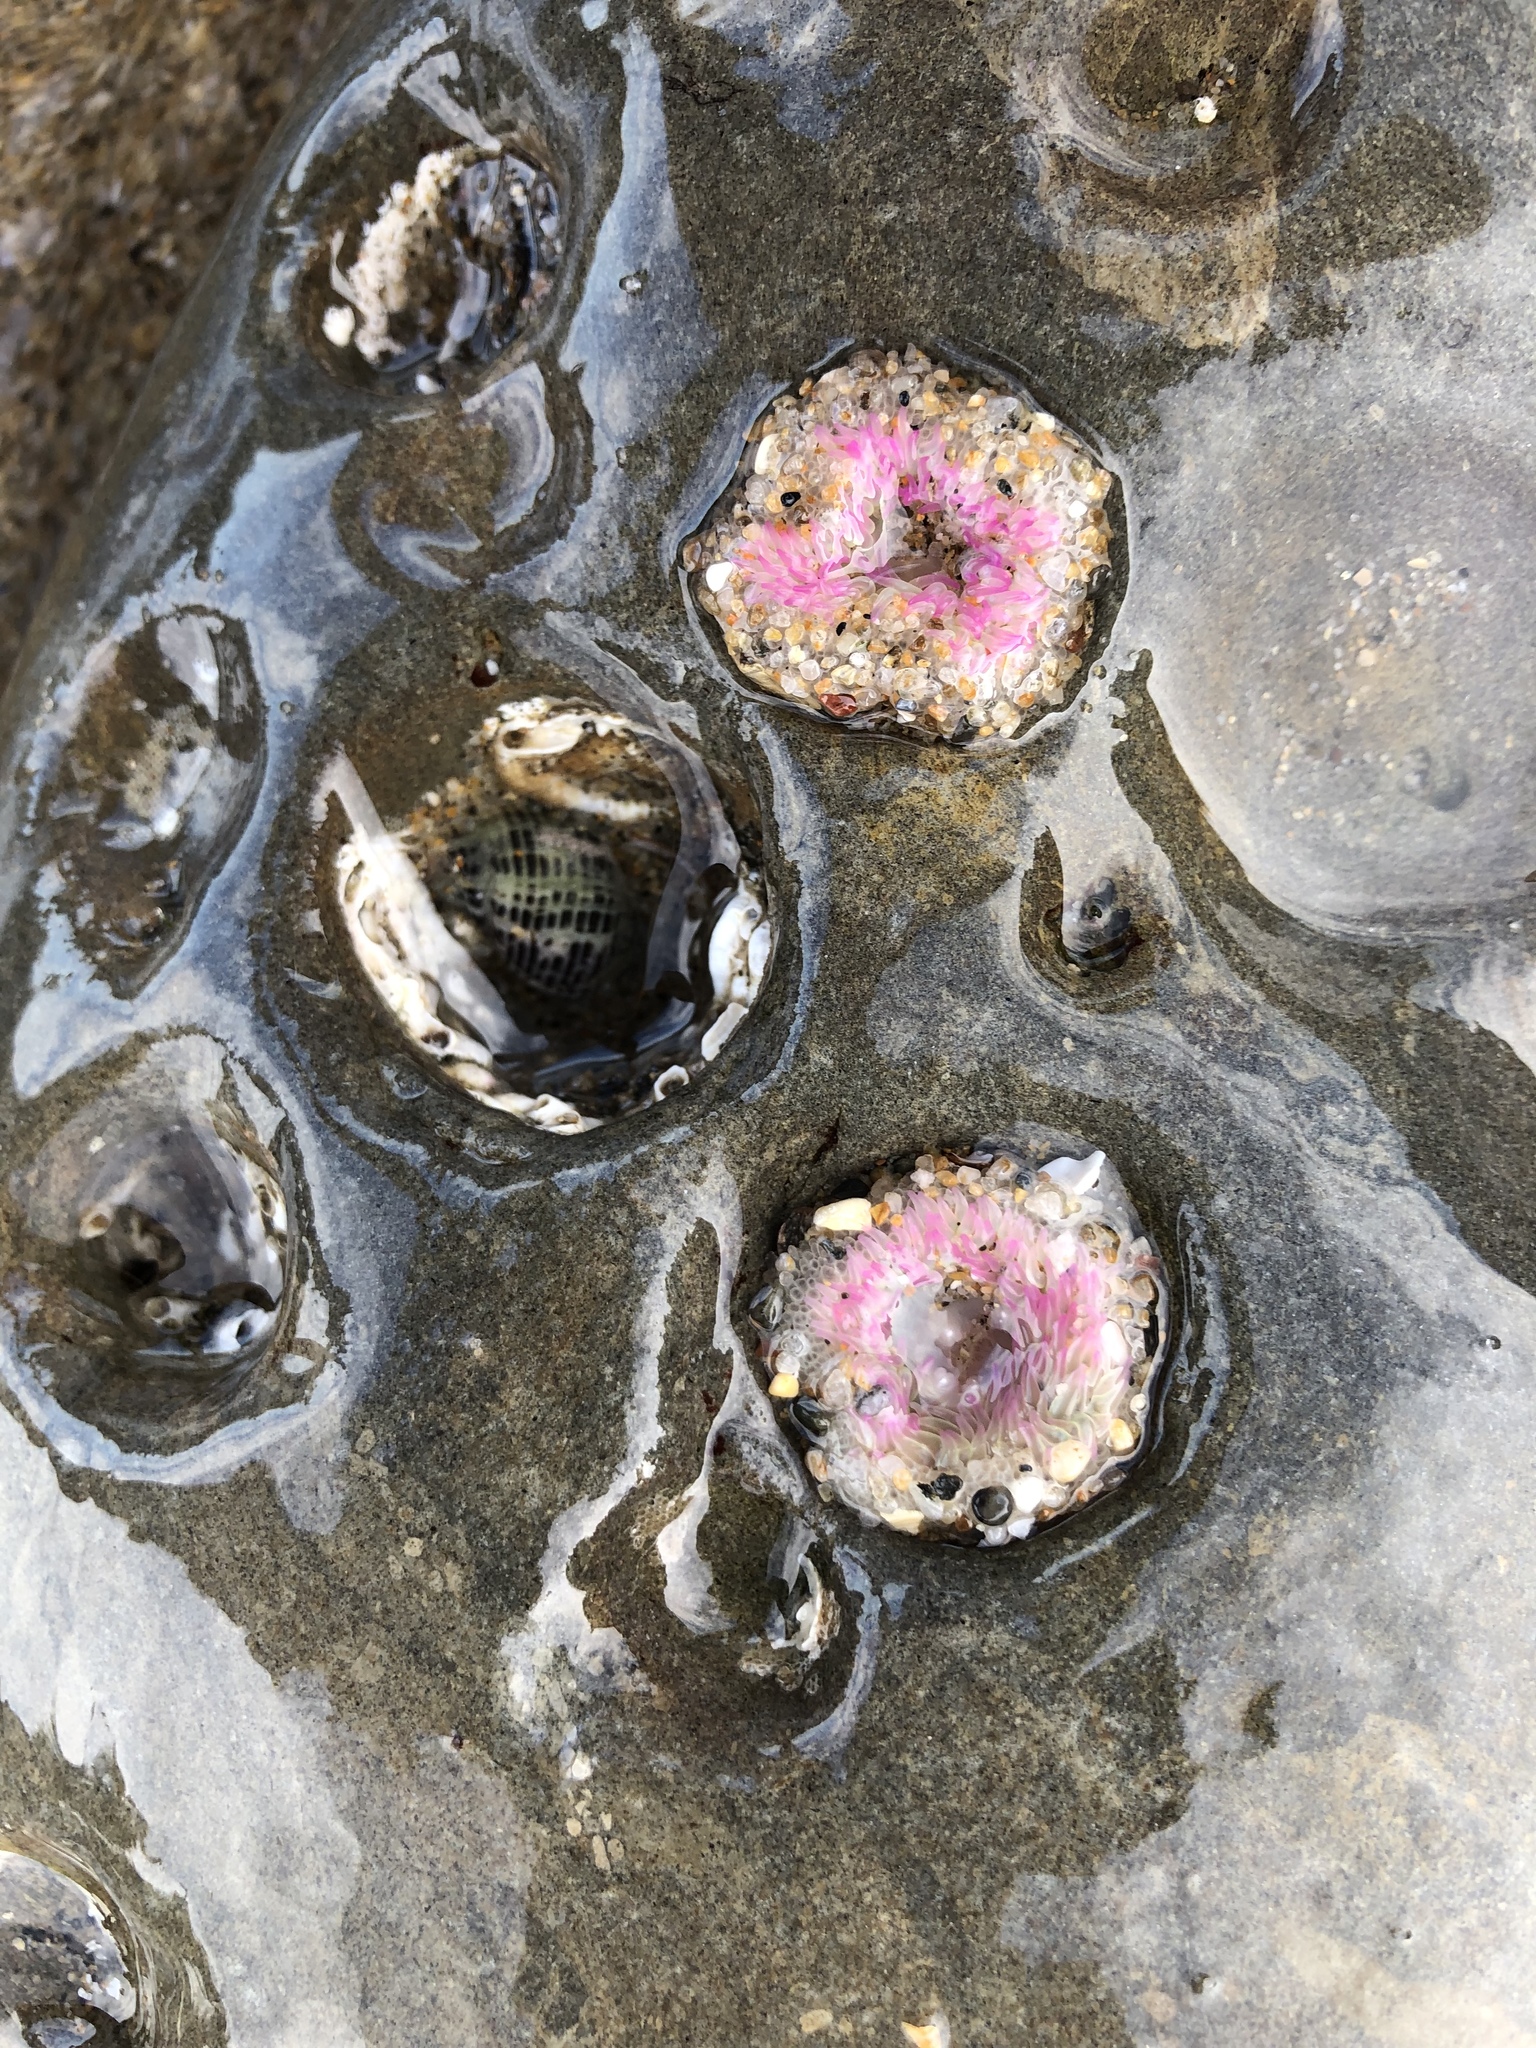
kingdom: Animalia
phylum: Cnidaria
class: Anthozoa
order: Actiniaria
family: Actiniidae
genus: Anthopleura
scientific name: Anthopleura elegantissima
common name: Clonal anemone
